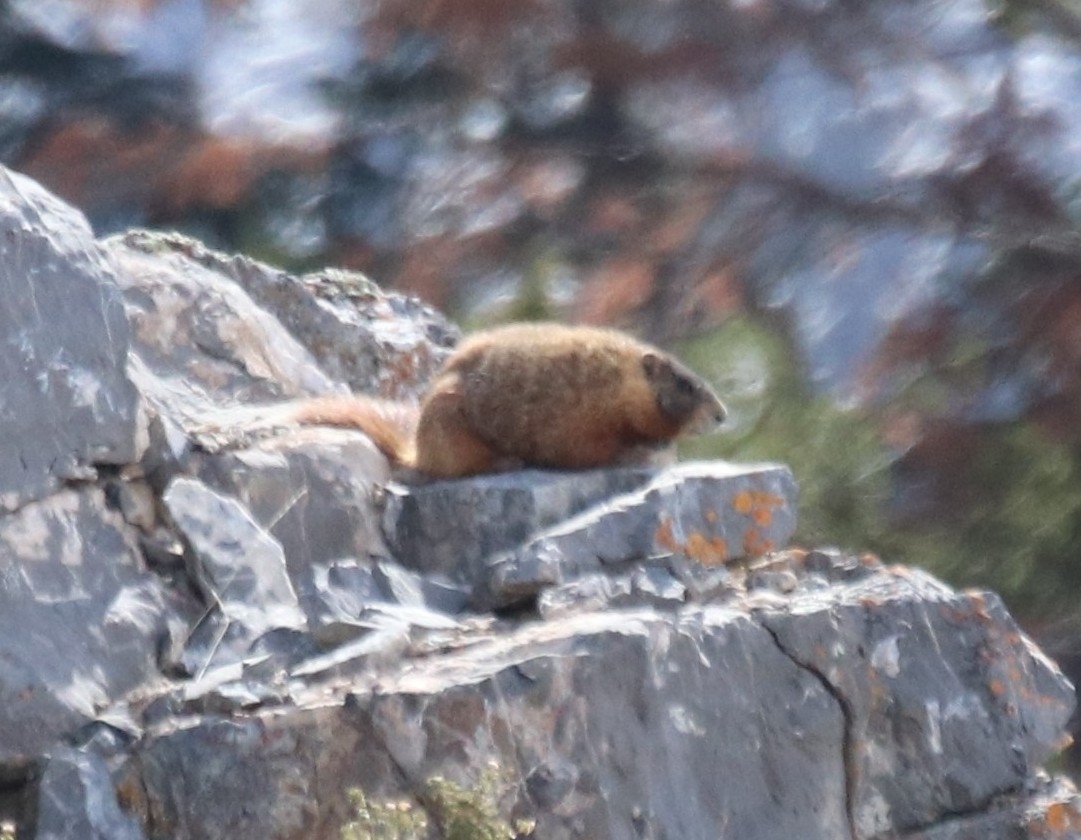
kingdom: Animalia
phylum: Chordata
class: Mammalia
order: Rodentia
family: Sciuridae
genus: Marmota
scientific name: Marmota flaviventris
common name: Yellow-bellied marmot
